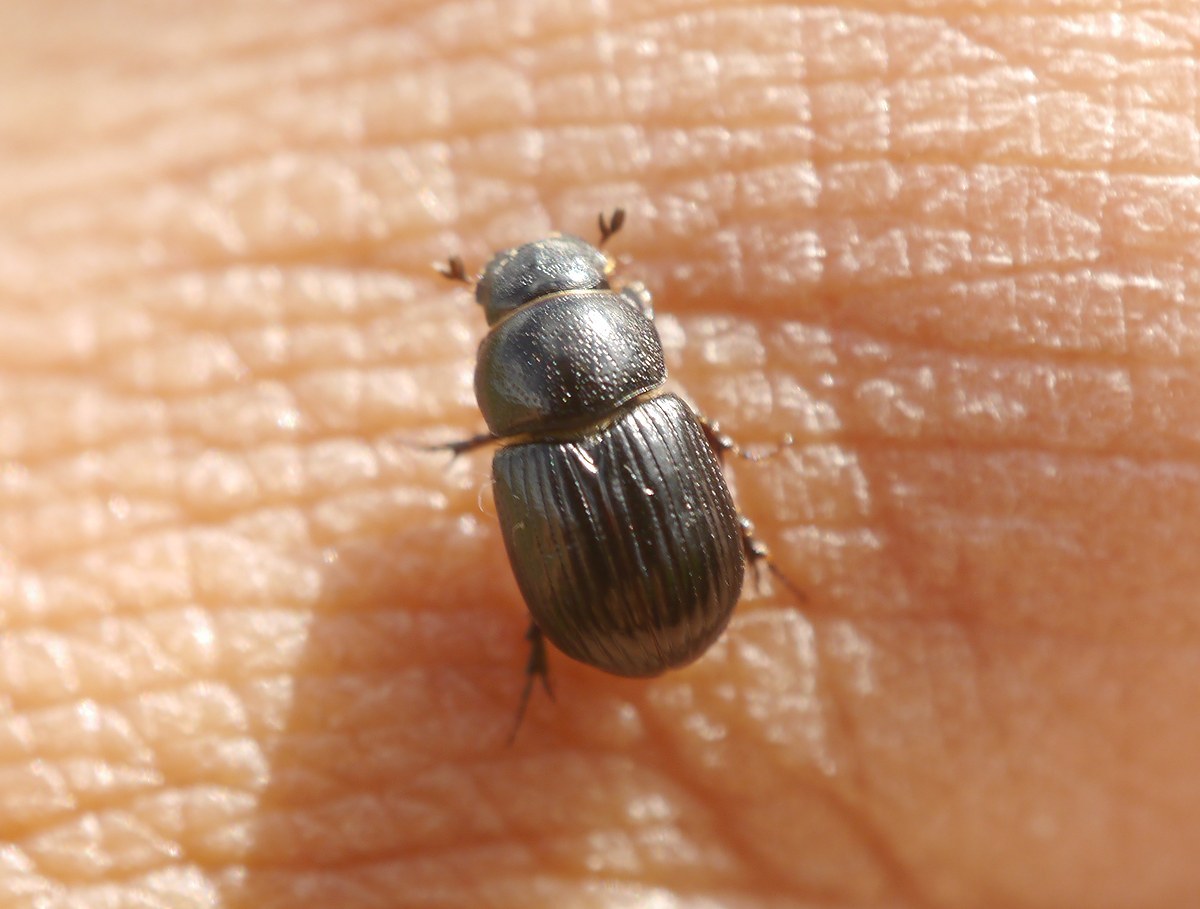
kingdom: Animalia
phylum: Arthropoda
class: Insecta
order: Coleoptera
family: Scarabaeidae
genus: Loraspis
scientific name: Loraspis frater
